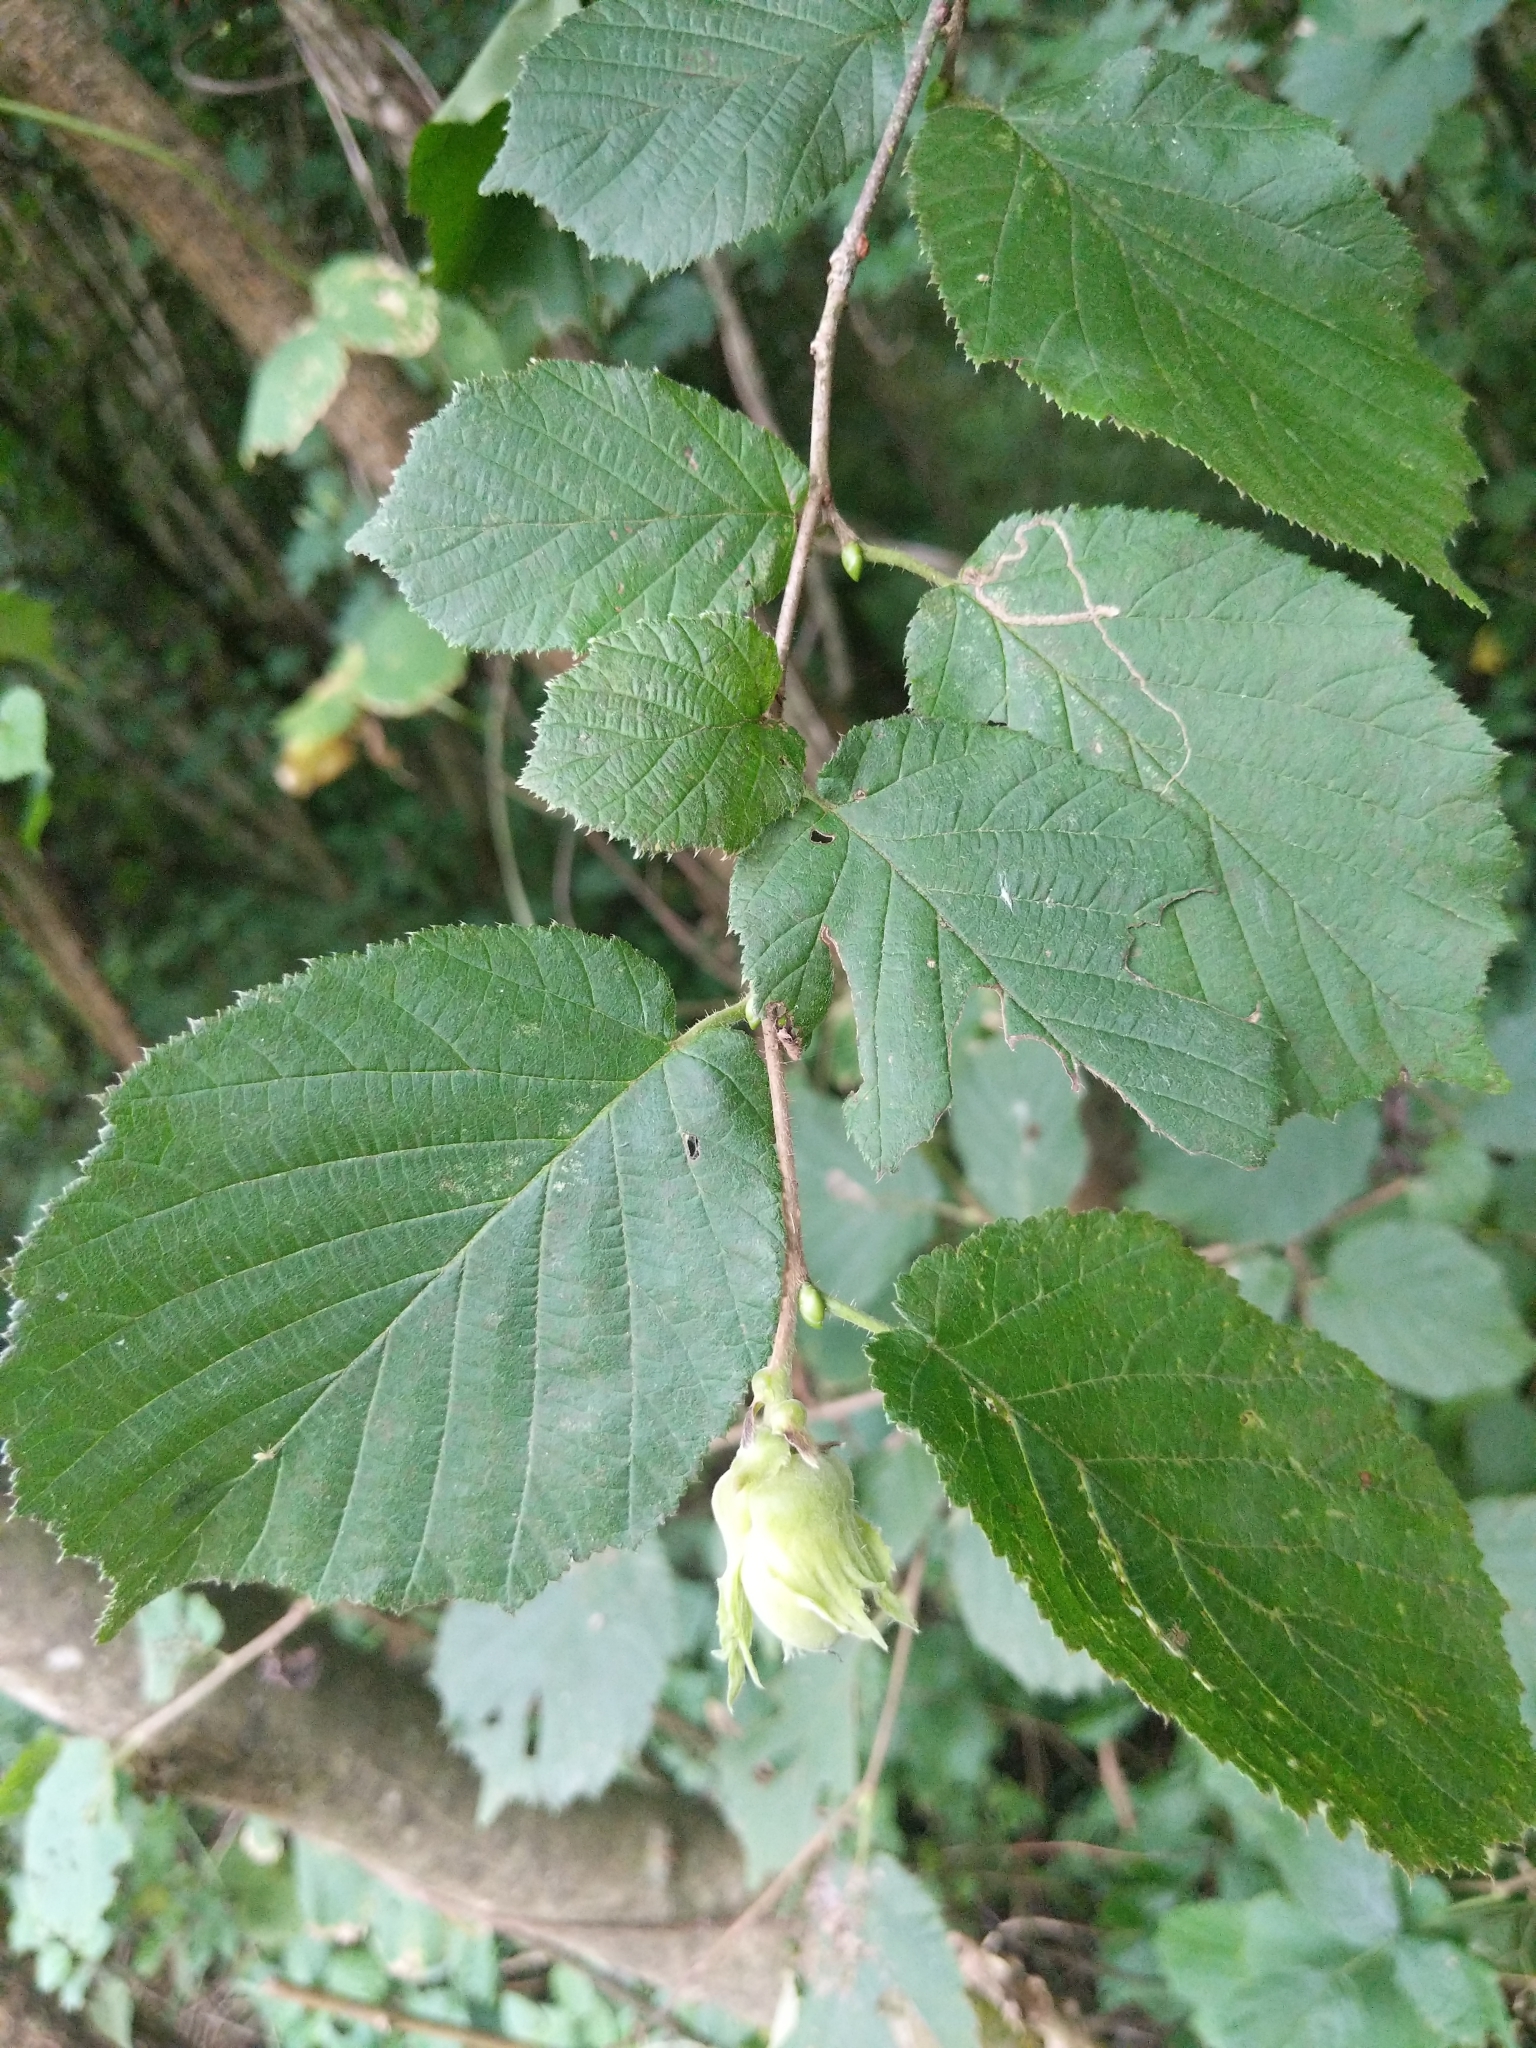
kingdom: Plantae
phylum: Tracheophyta
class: Magnoliopsida
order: Fagales
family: Betulaceae
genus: Corylus
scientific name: Corylus avellana
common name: European hazel
